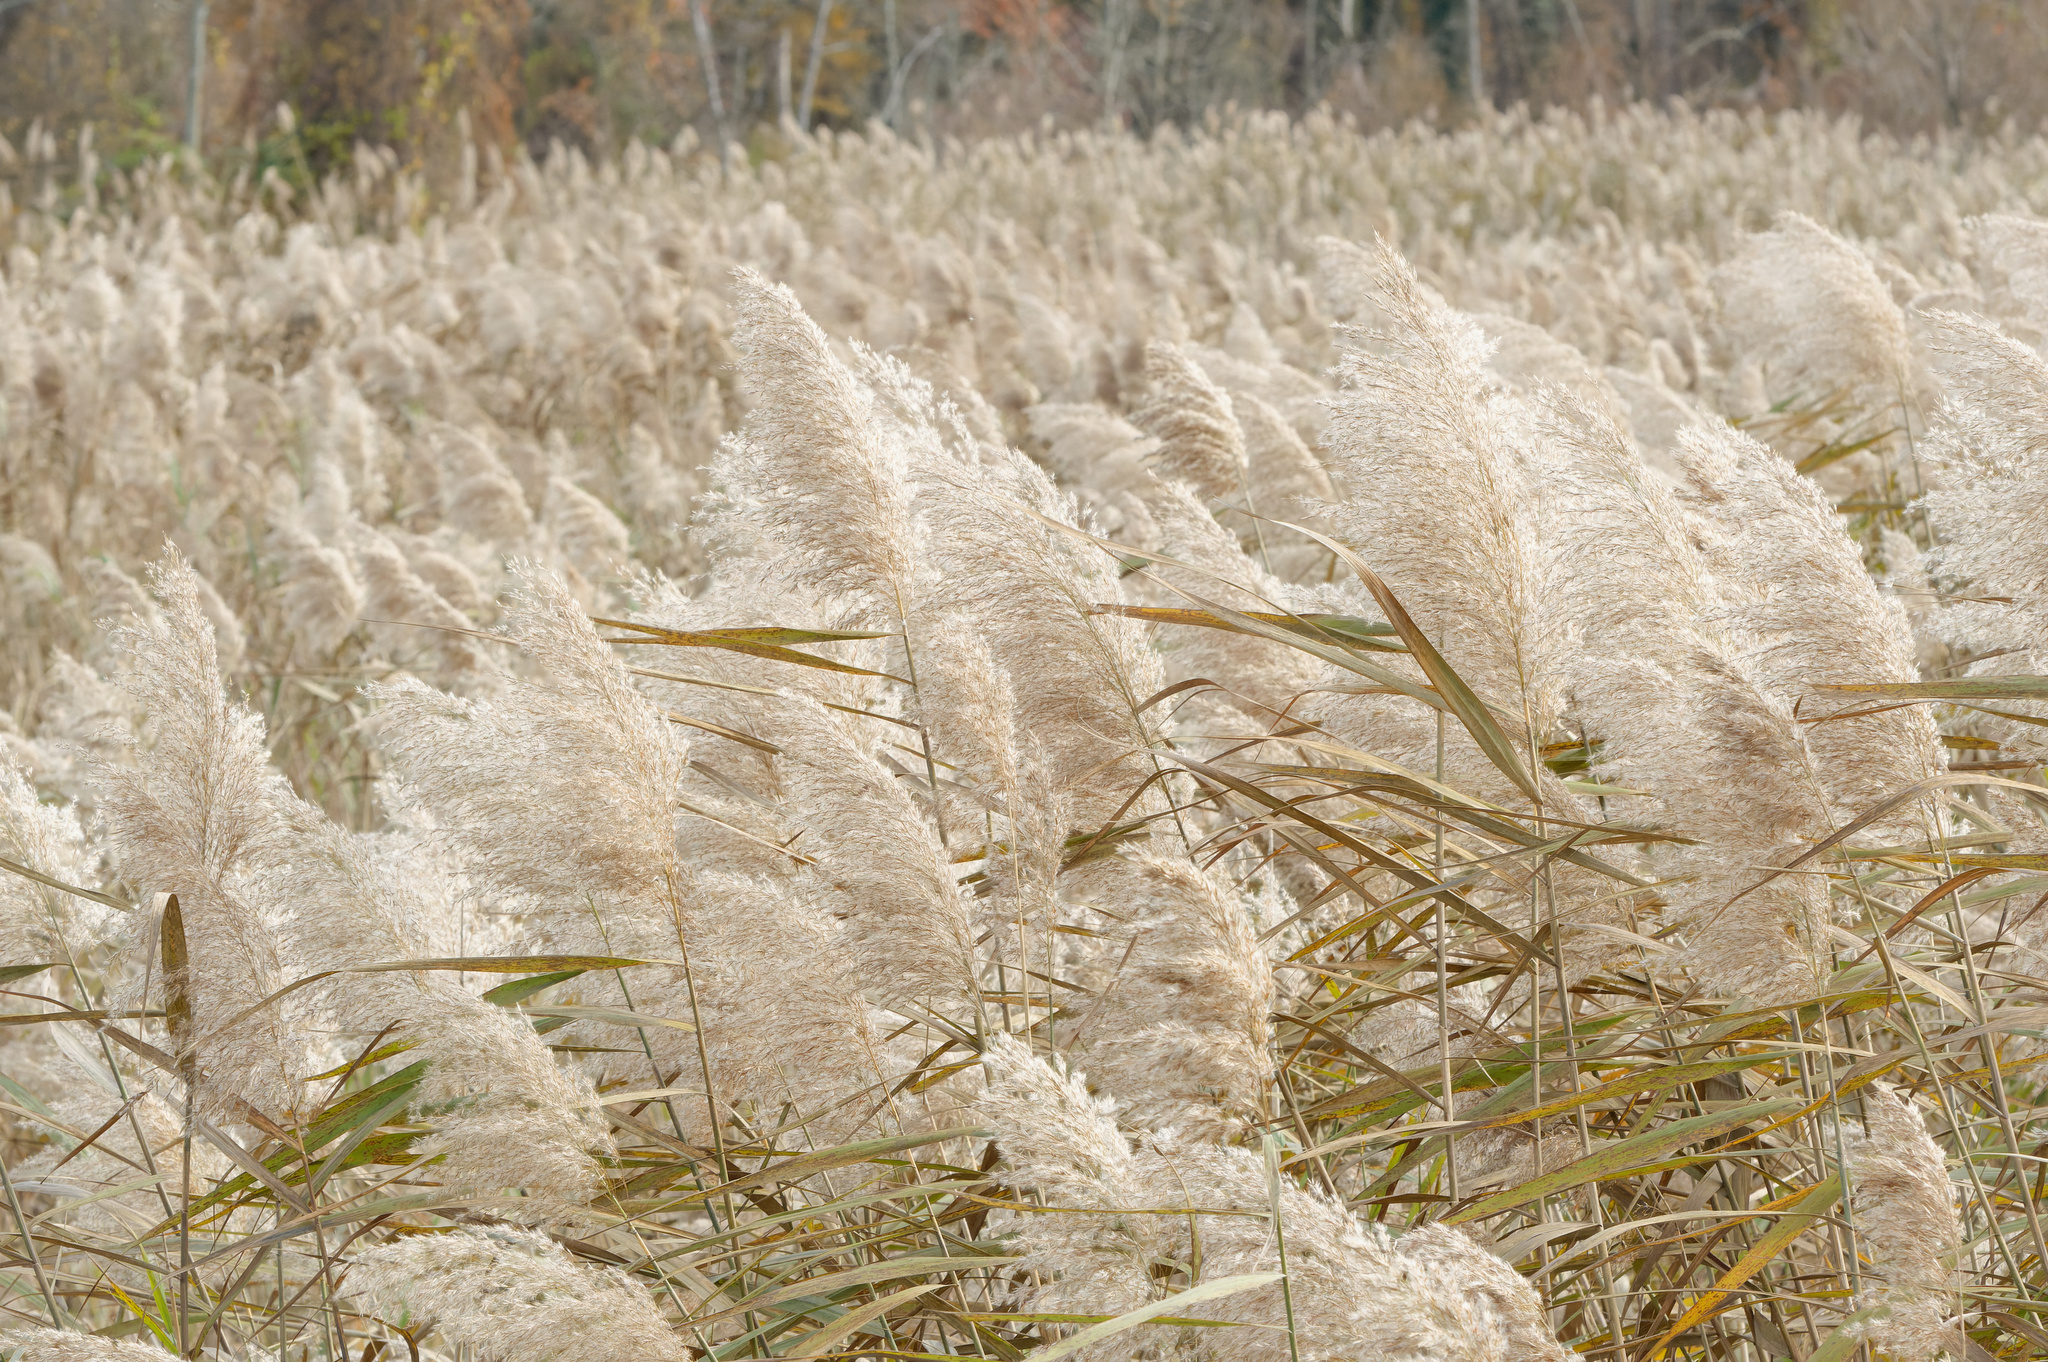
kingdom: Plantae
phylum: Tracheophyta
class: Liliopsida
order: Poales
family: Poaceae
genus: Phragmites
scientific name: Phragmites australis
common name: Common reed
